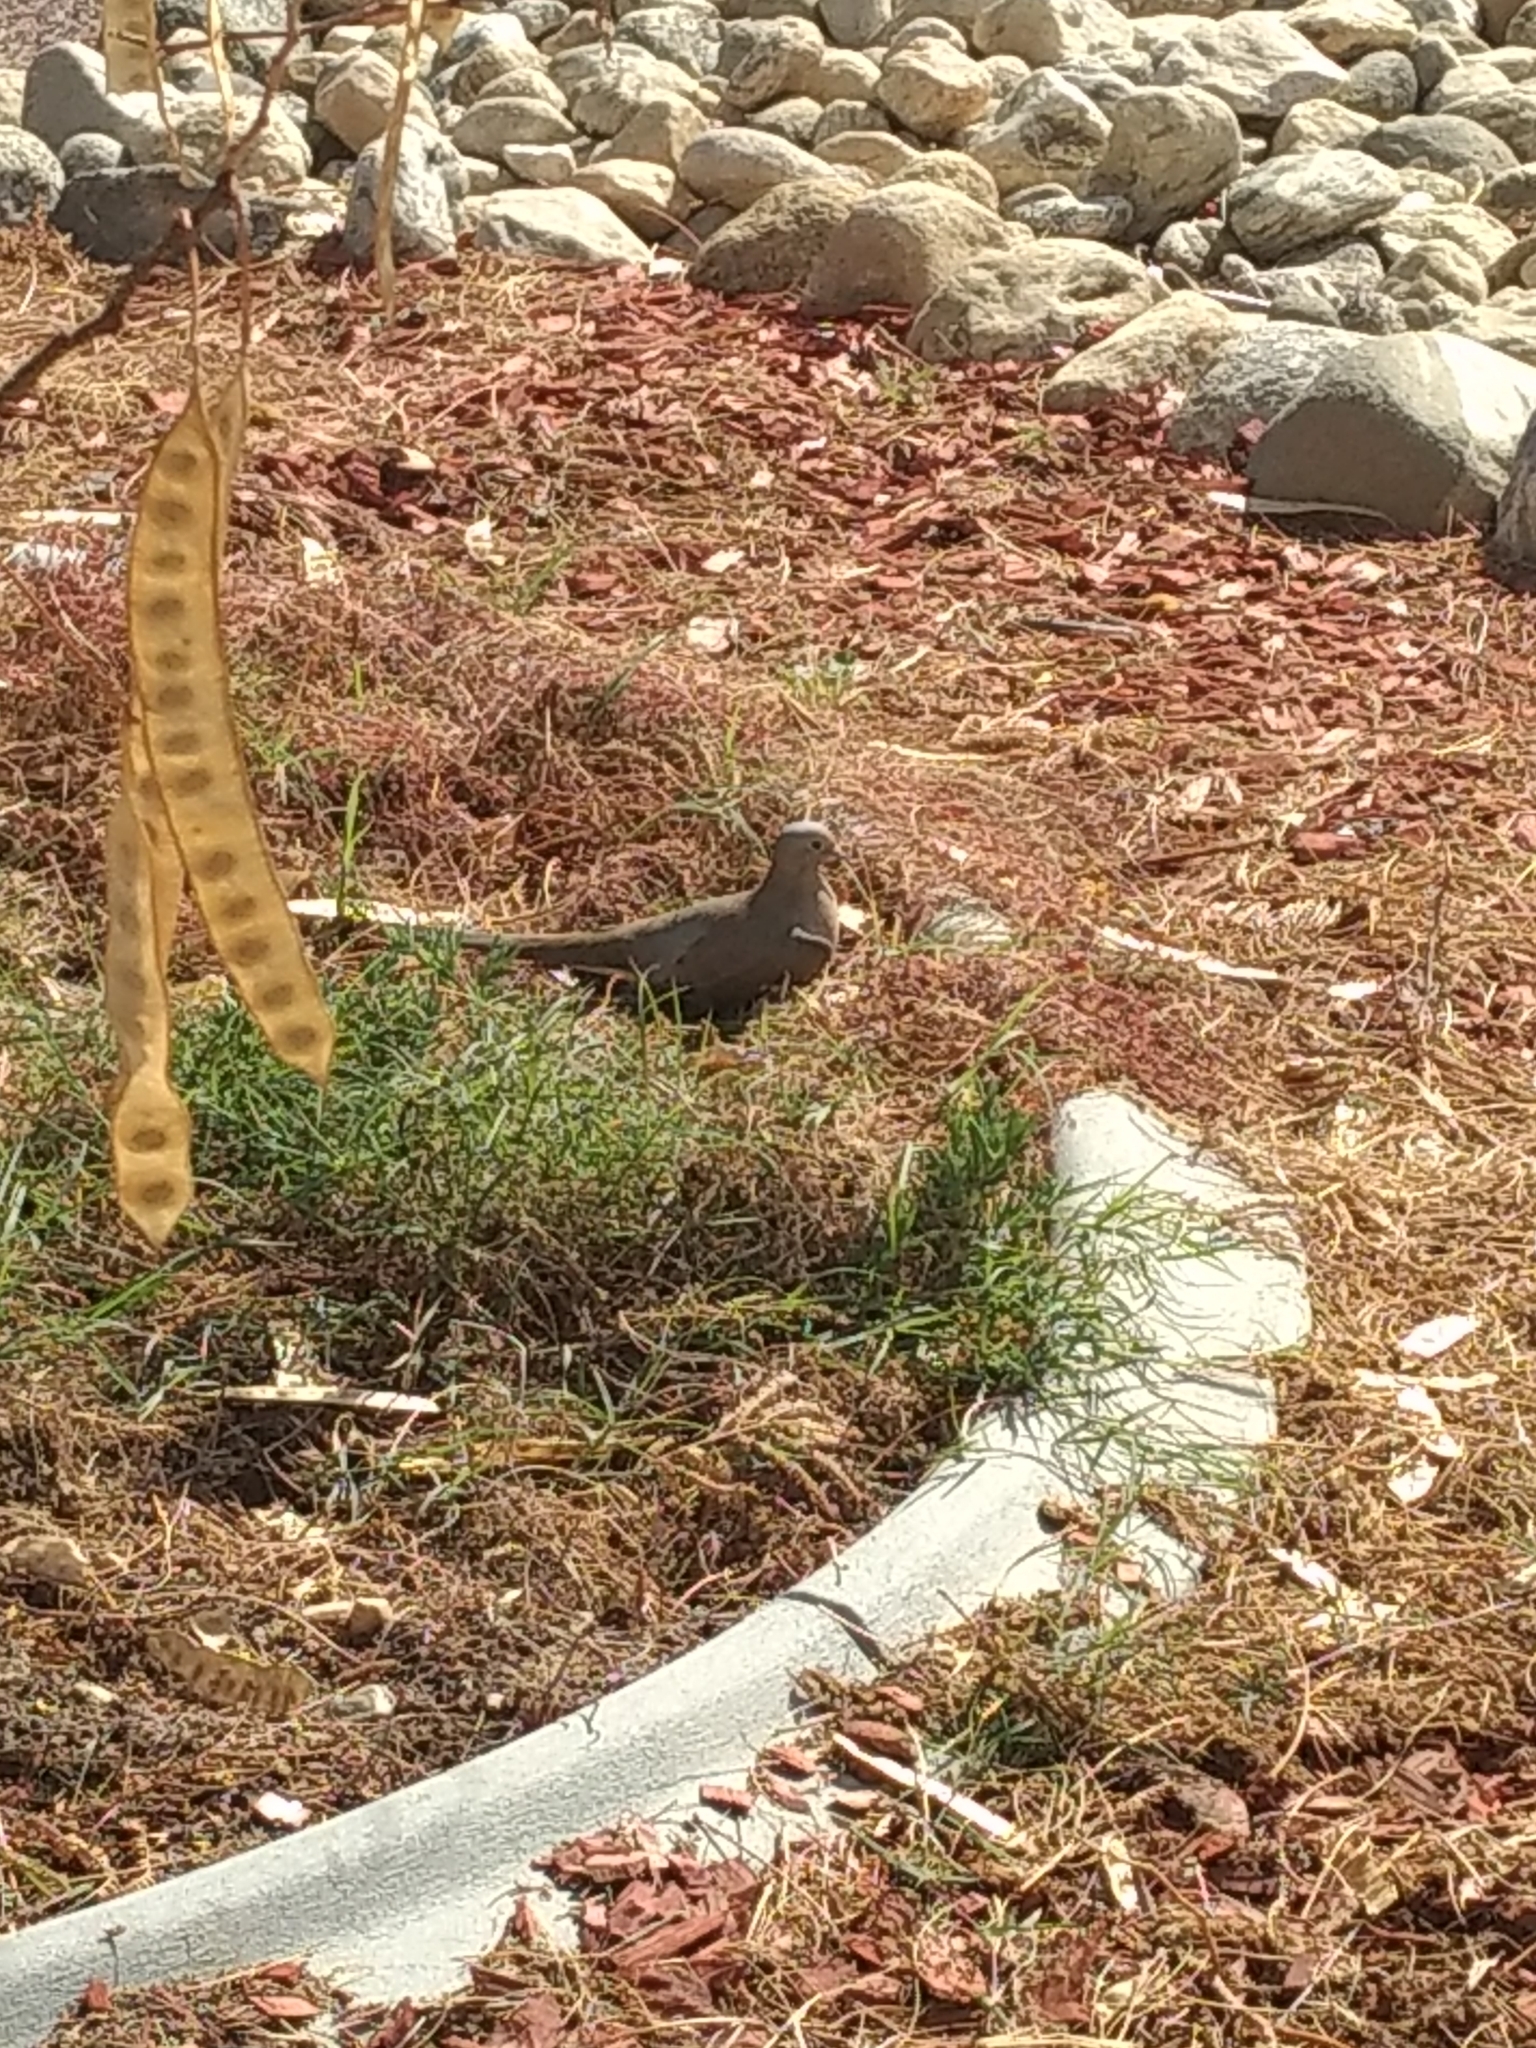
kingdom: Animalia
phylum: Chordata
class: Aves
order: Columbiformes
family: Columbidae
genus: Zenaida
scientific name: Zenaida macroura
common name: Mourning dove
